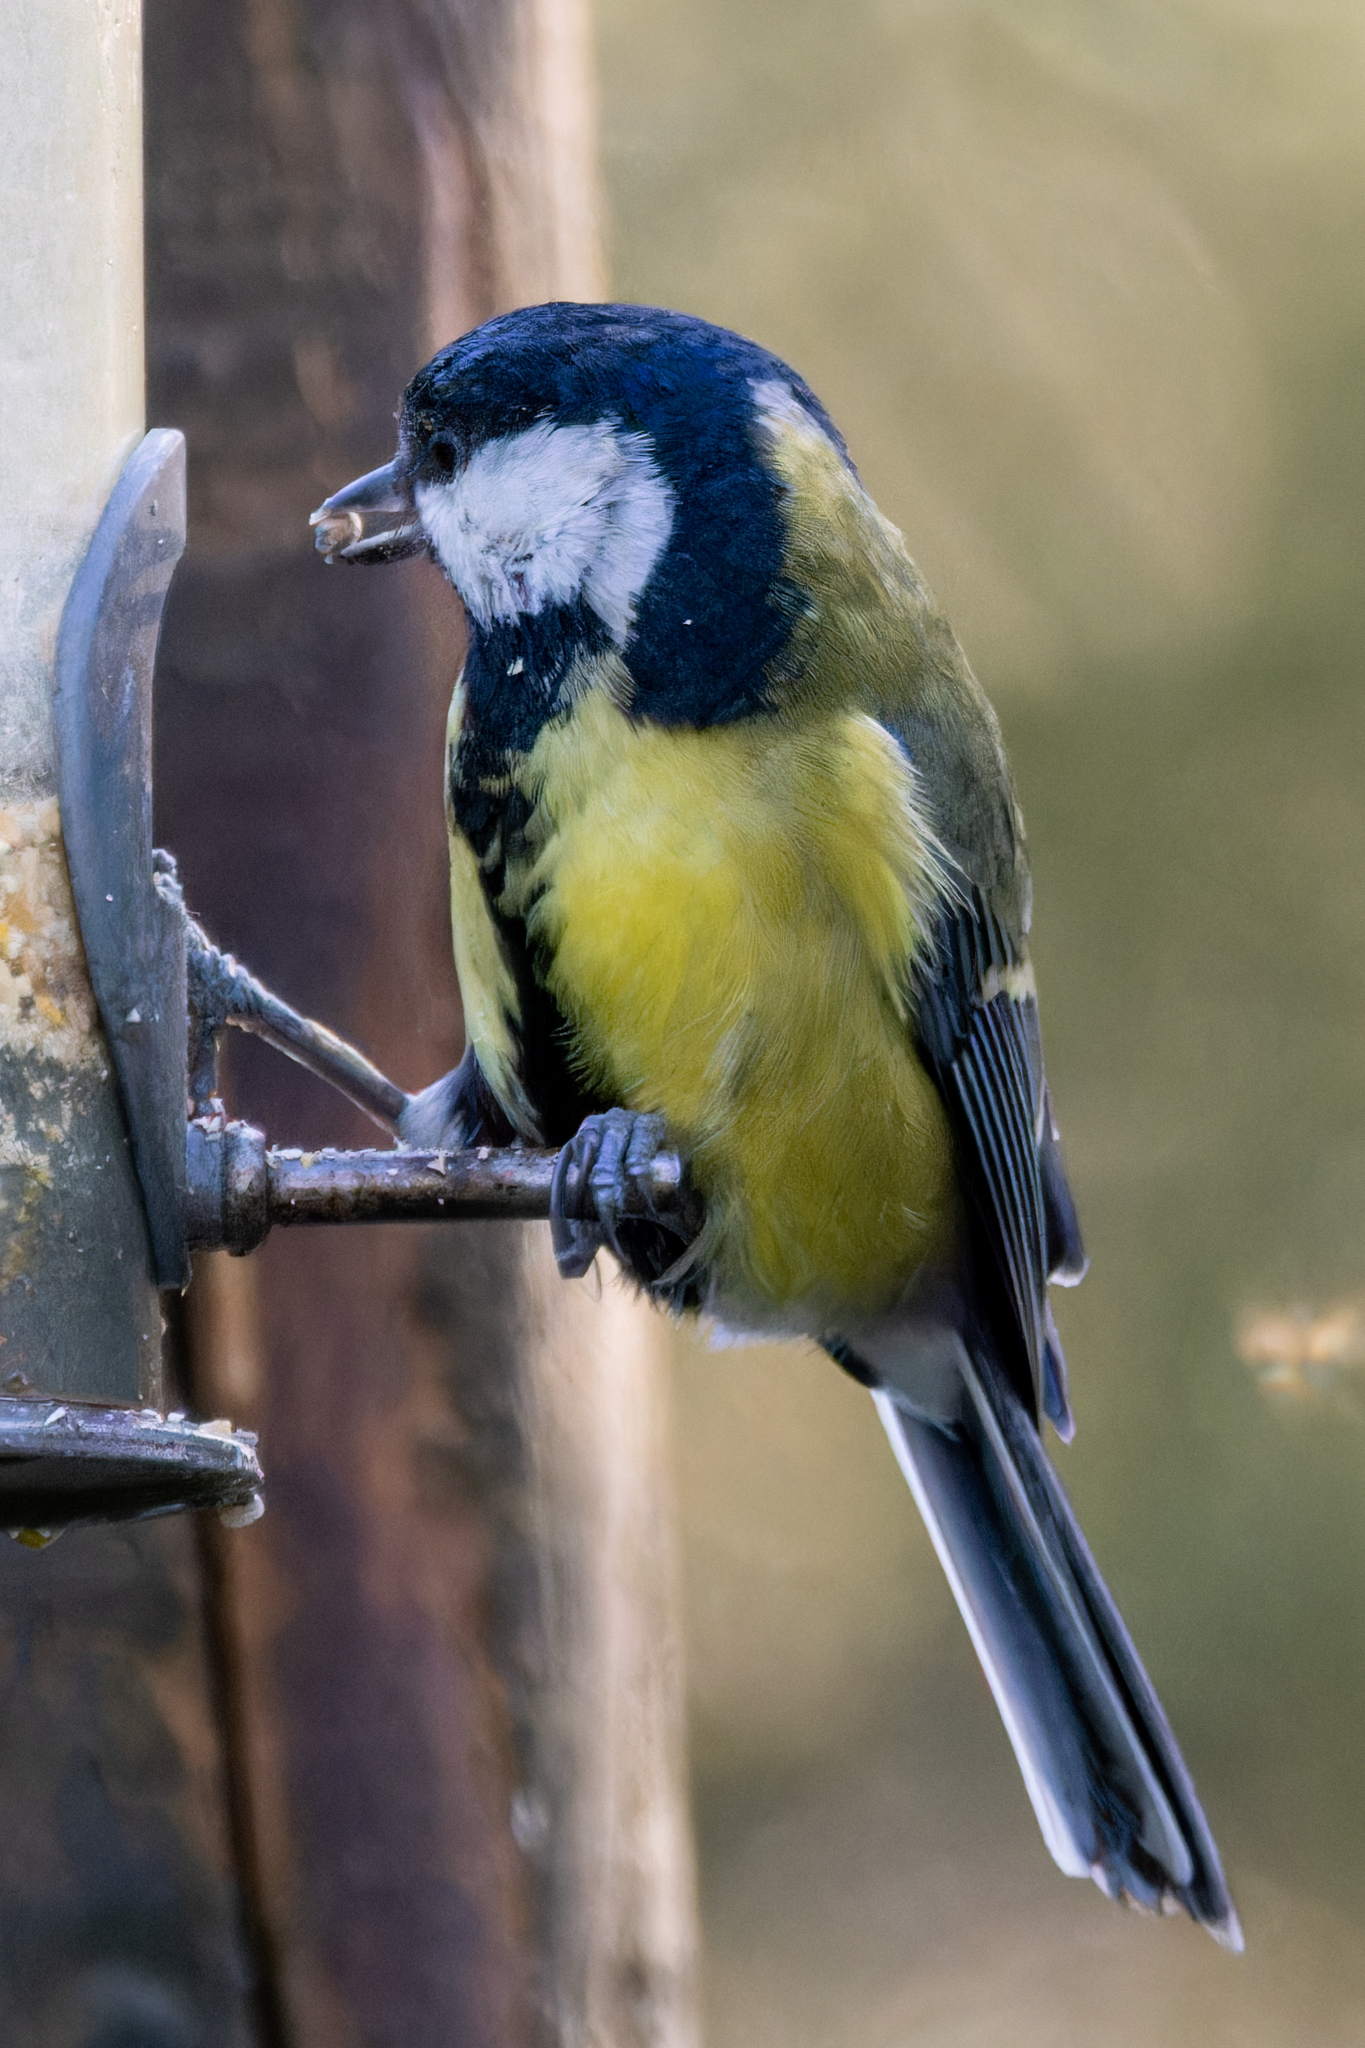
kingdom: Animalia
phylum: Chordata
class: Aves
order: Passeriformes
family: Paridae
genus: Parus
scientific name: Parus major
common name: Great tit
